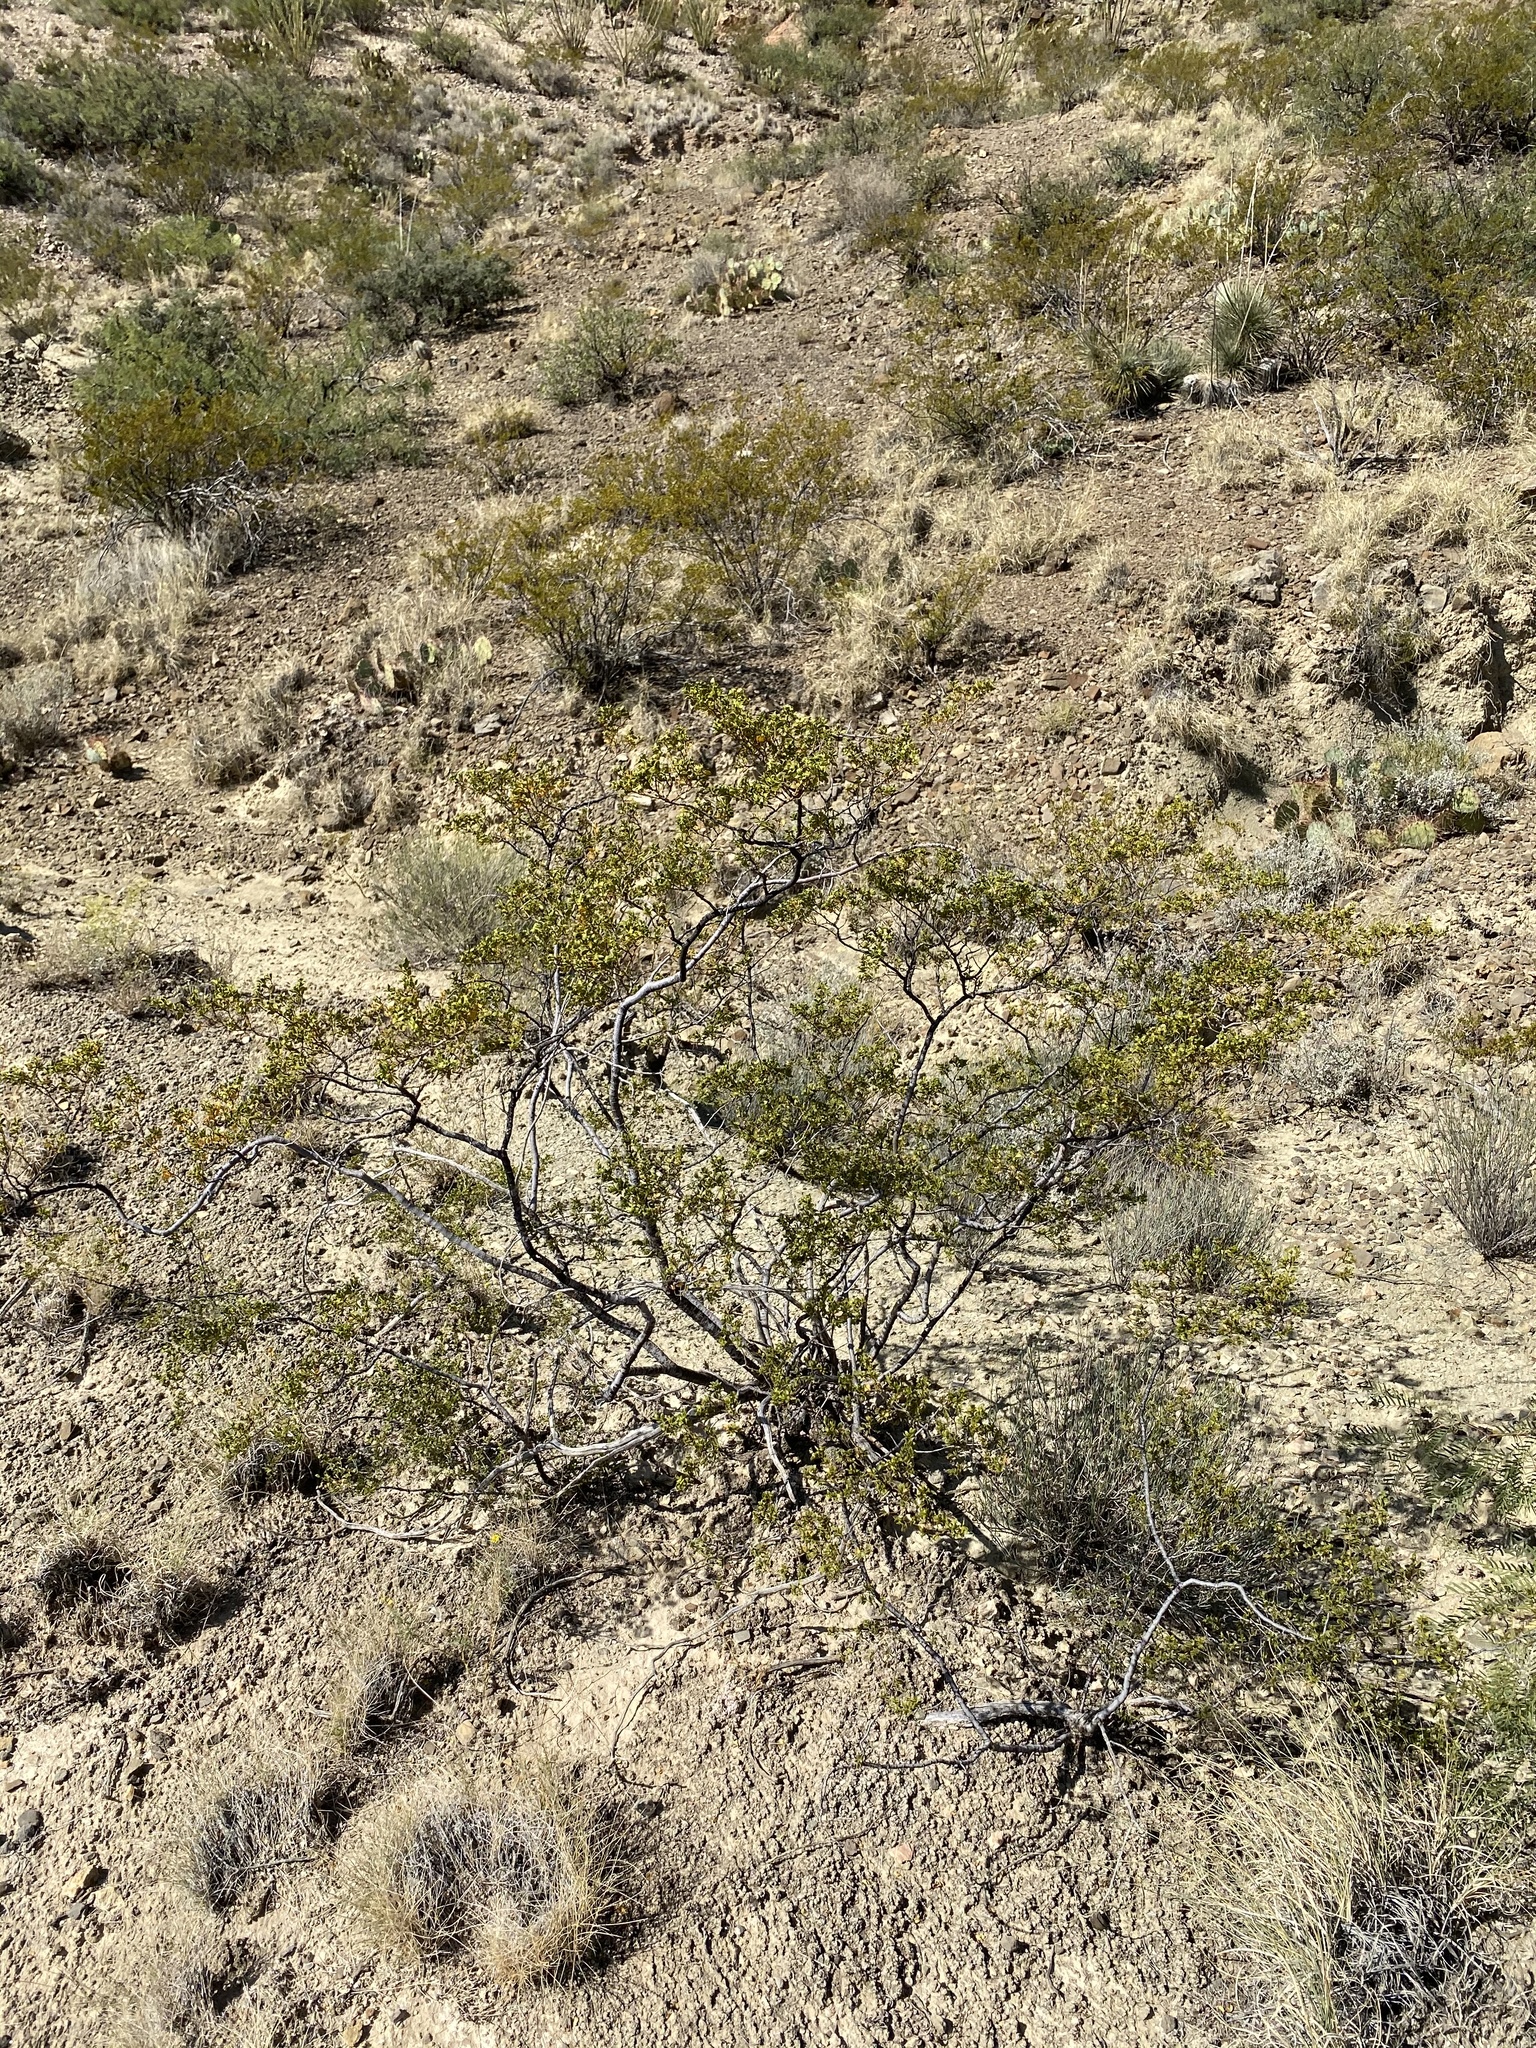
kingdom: Plantae
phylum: Tracheophyta
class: Magnoliopsida
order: Zygophyllales
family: Zygophyllaceae
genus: Larrea
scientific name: Larrea tridentata
